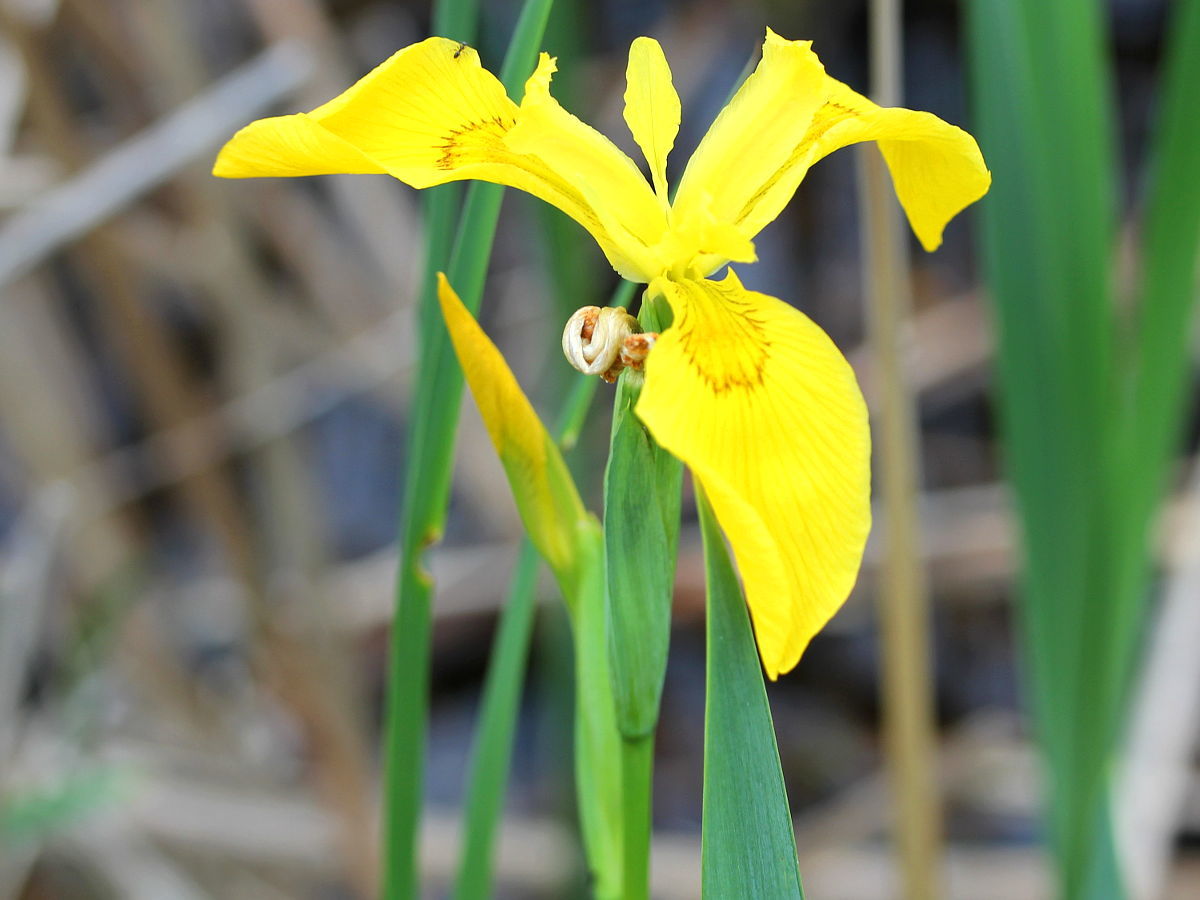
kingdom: Plantae
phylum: Tracheophyta
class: Liliopsida
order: Asparagales
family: Iridaceae
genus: Iris
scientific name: Iris pseudacorus
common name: Yellow flag
